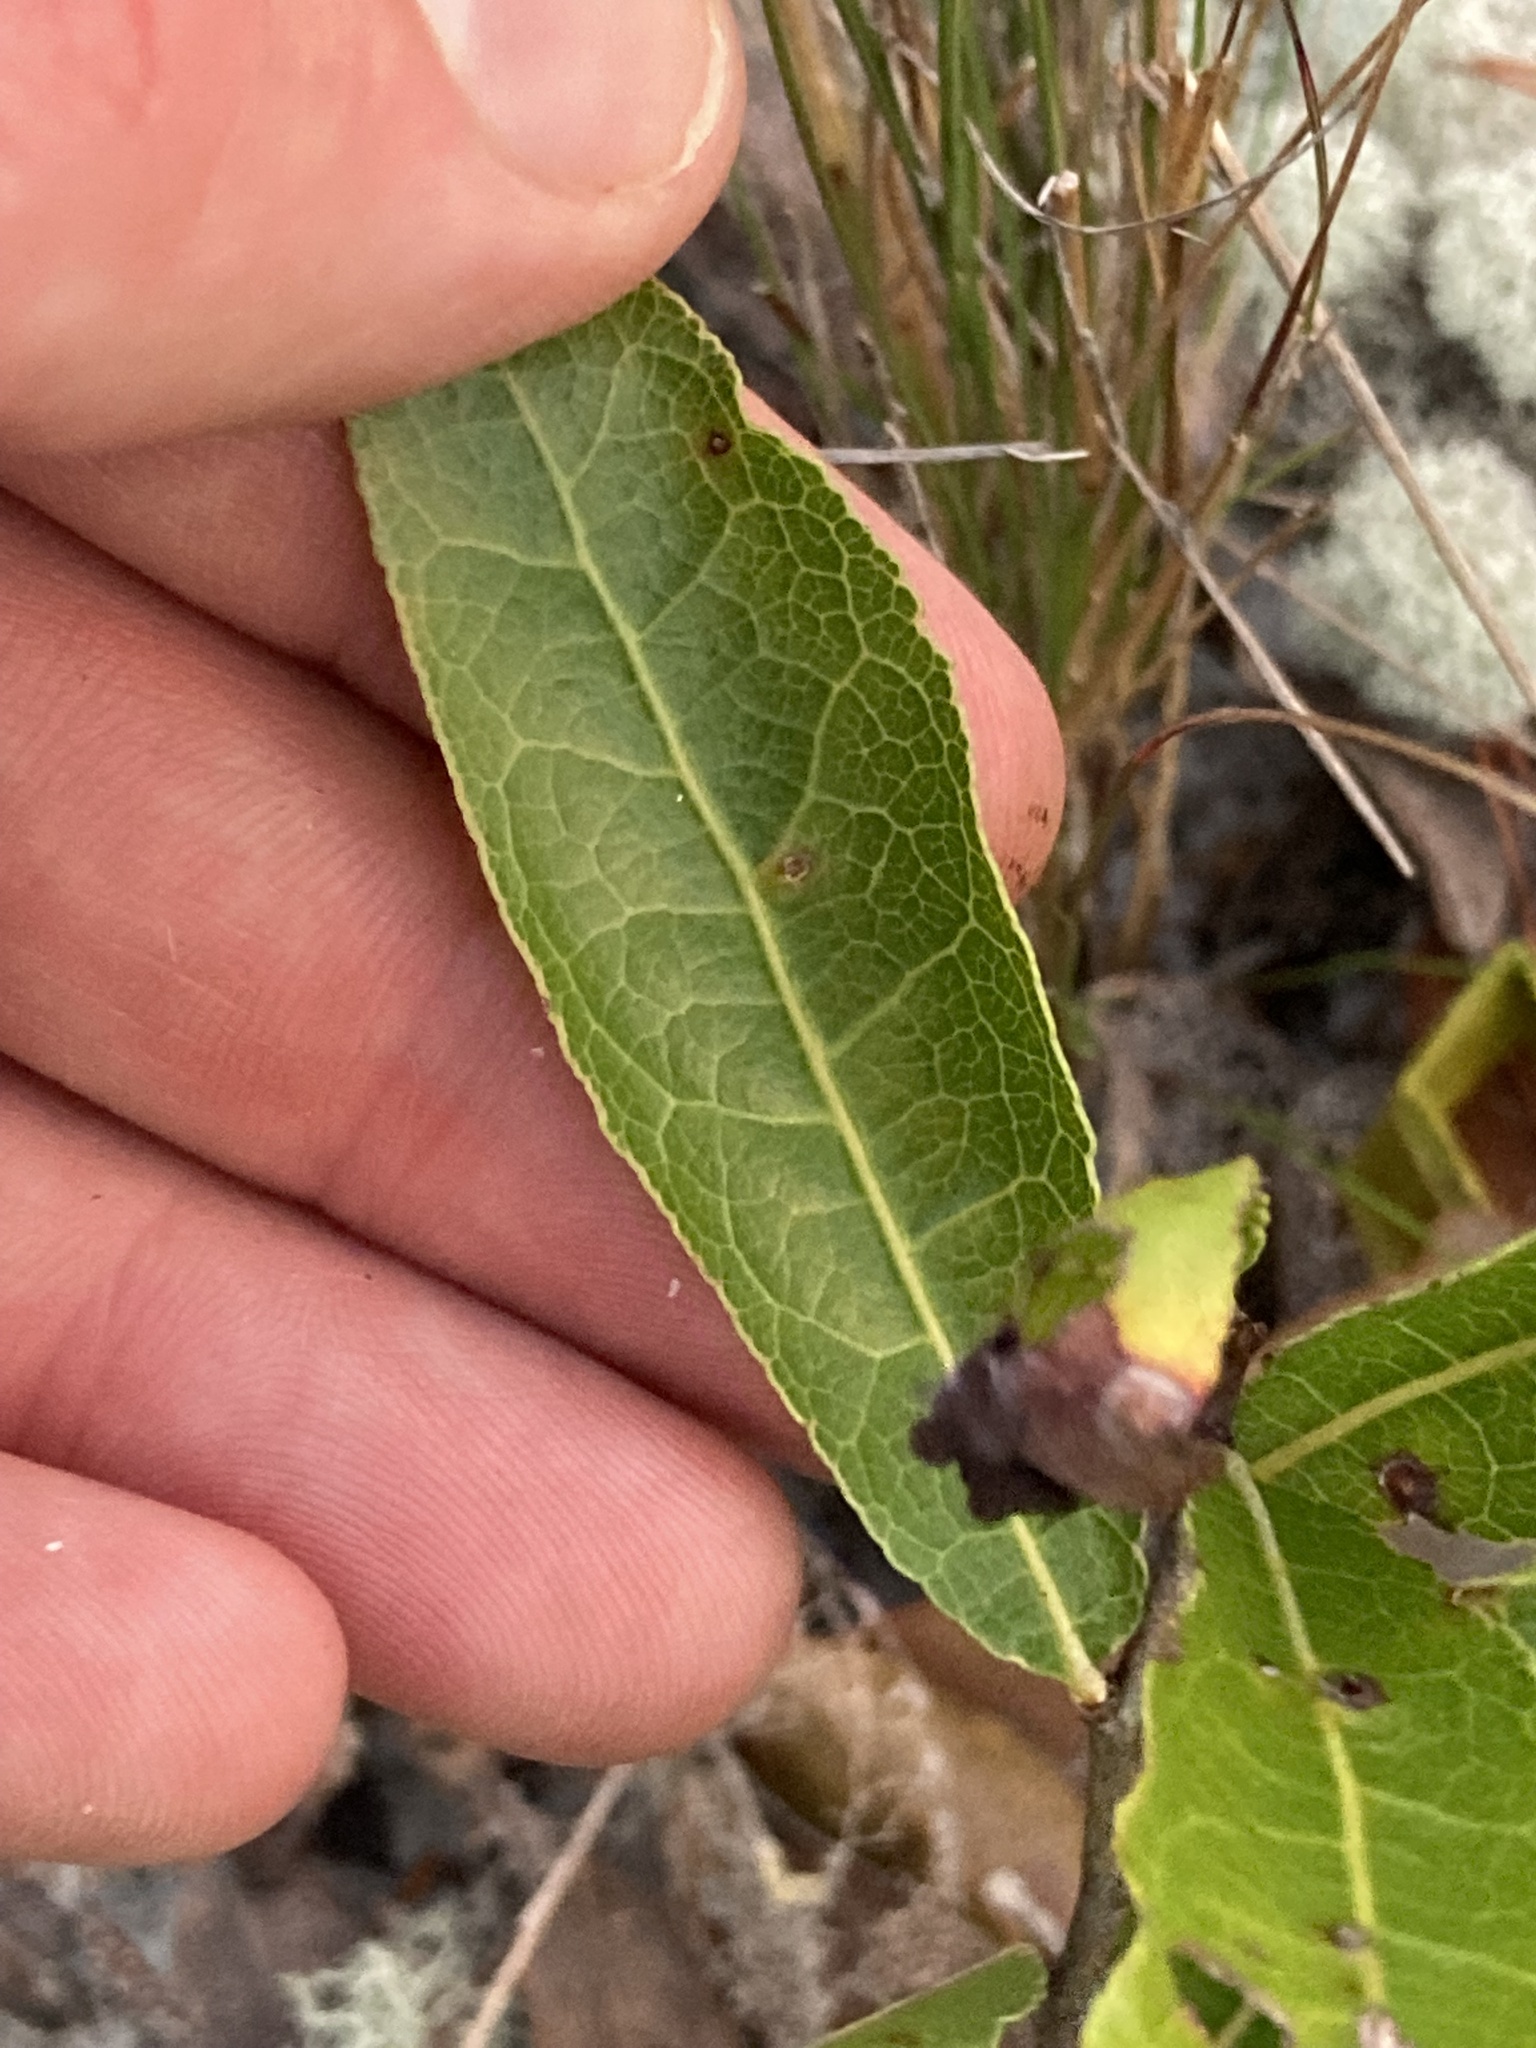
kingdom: Plantae
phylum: Tracheophyta
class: Magnoliopsida
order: Malpighiales
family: Chrysobalanaceae
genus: Geobalanus
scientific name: Geobalanus oblongifolius
